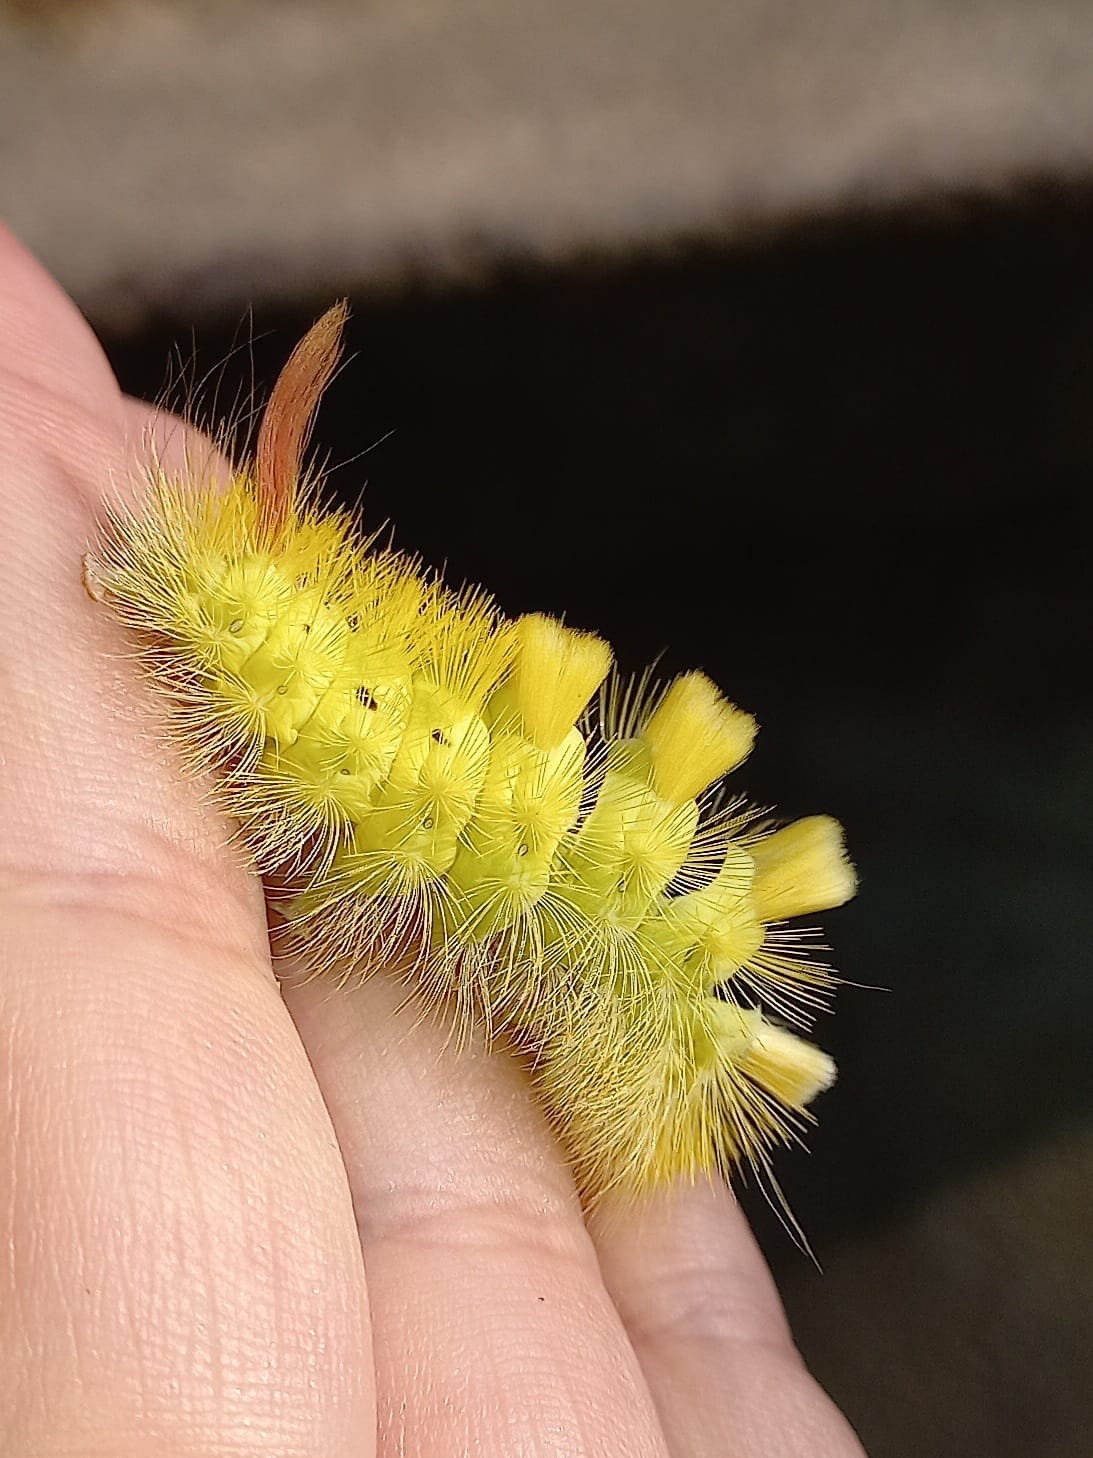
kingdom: Animalia
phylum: Arthropoda
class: Insecta
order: Lepidoptera
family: Erebidae
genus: Calliteara
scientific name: Calliteara pudibunda
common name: Pale tussock
